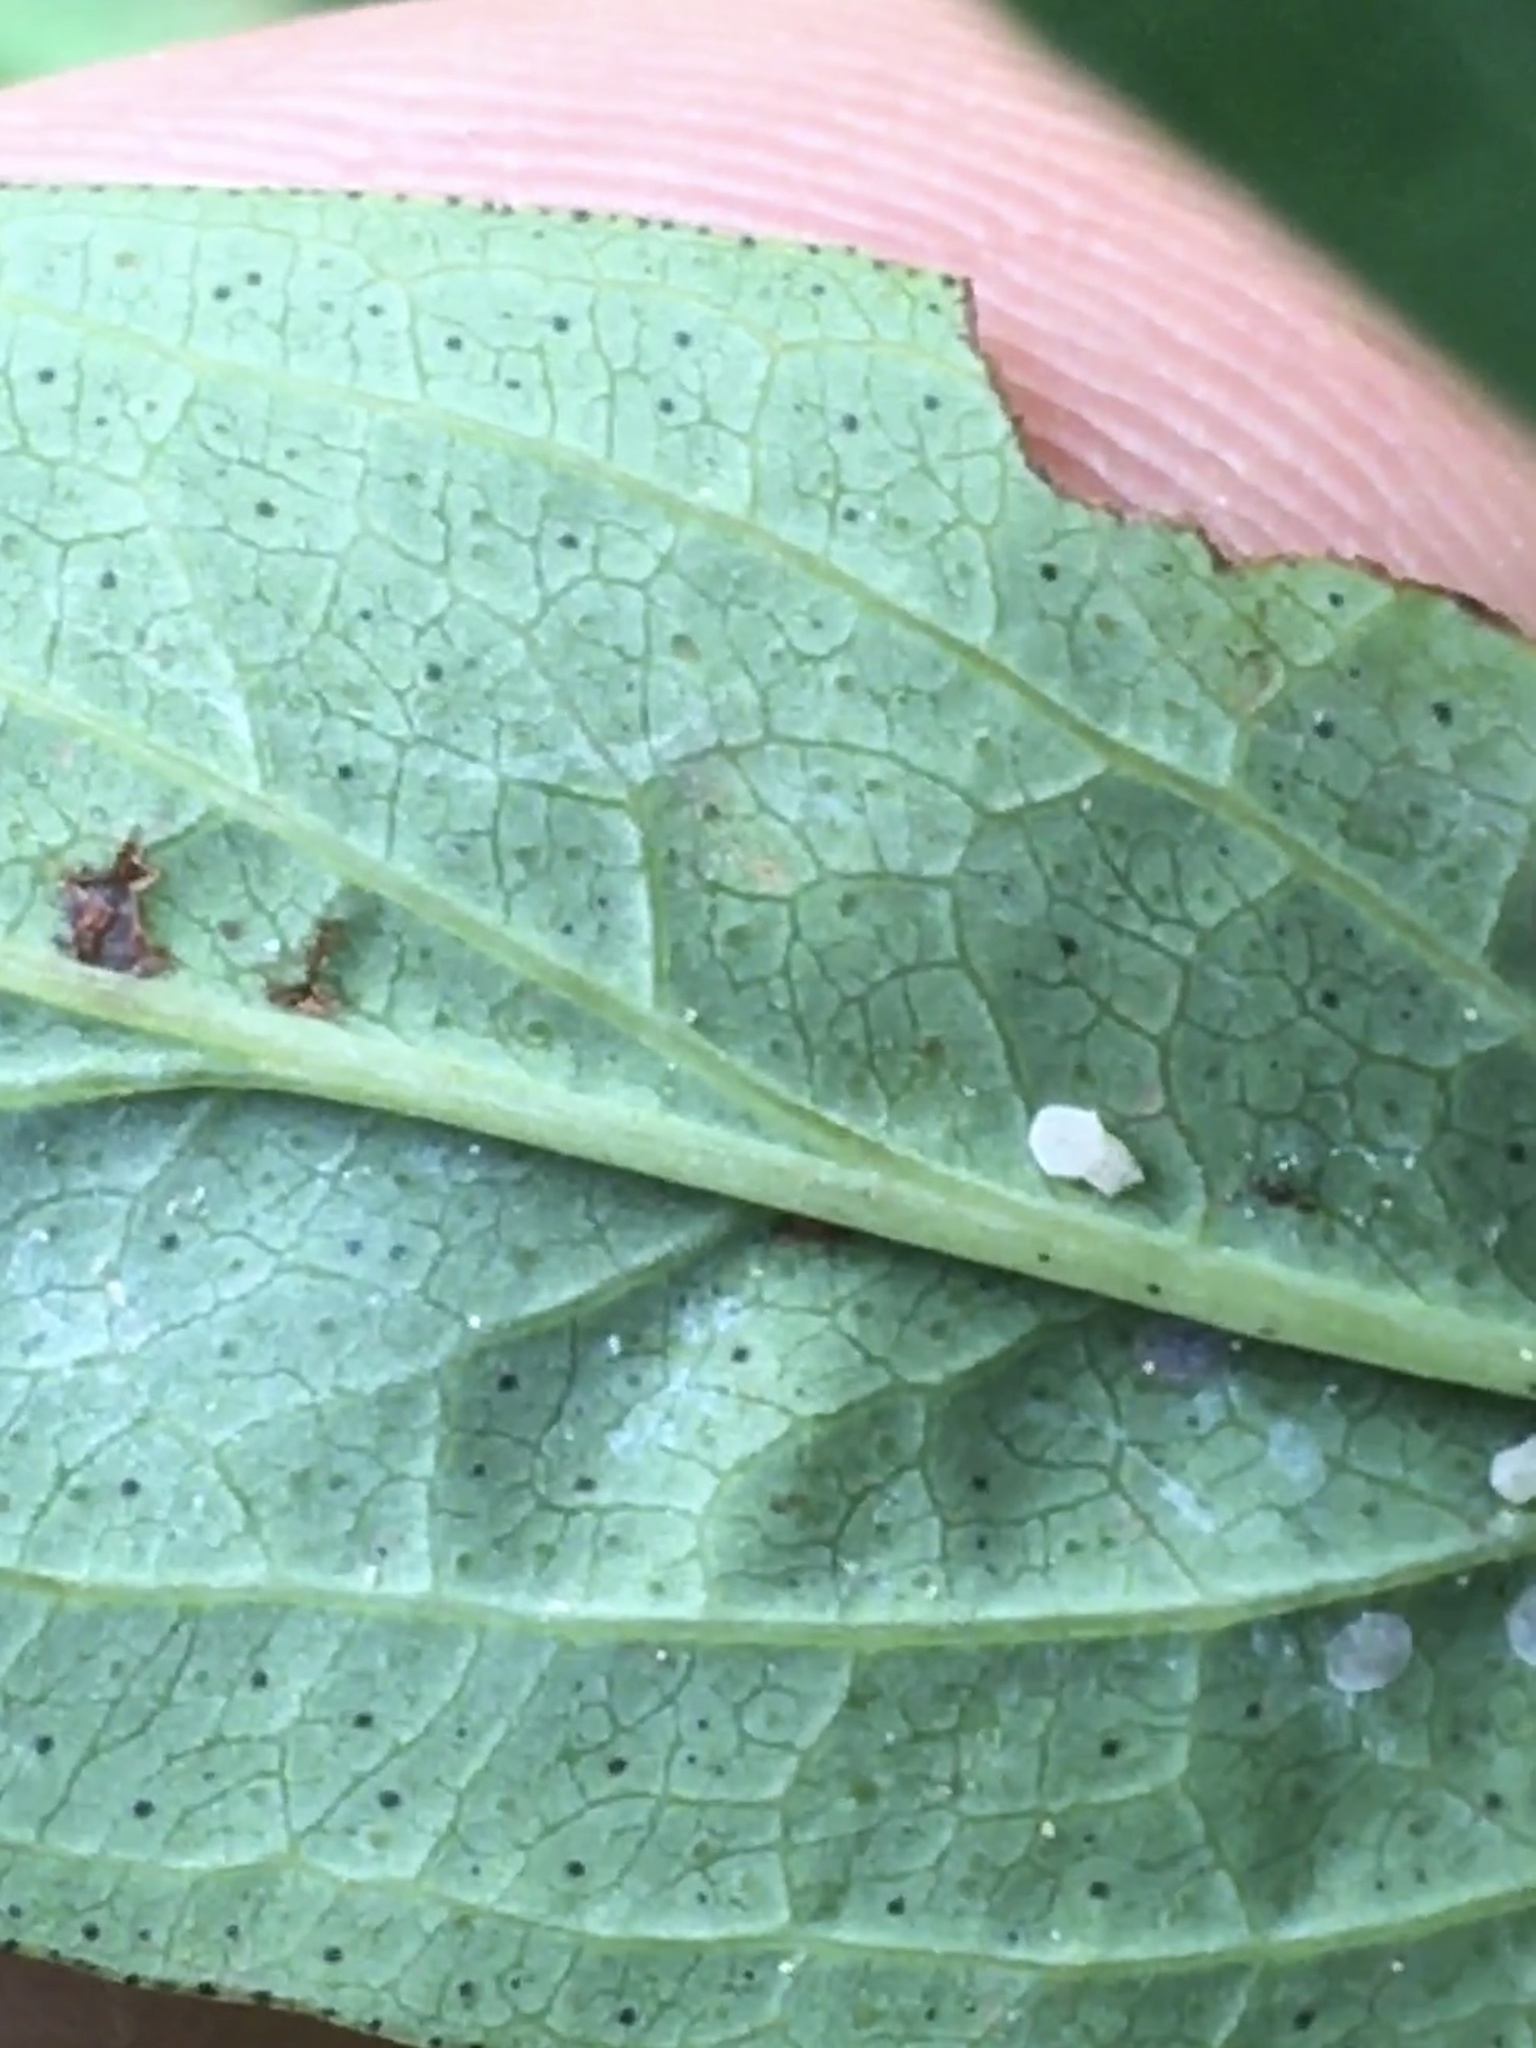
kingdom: Plantae
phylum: Tracheophyta
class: Magnoliopsida
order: Malpighiales
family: Hypericaceae
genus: Hypericum
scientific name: Hypericum punctatum
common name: Spotted st. john's-wort
